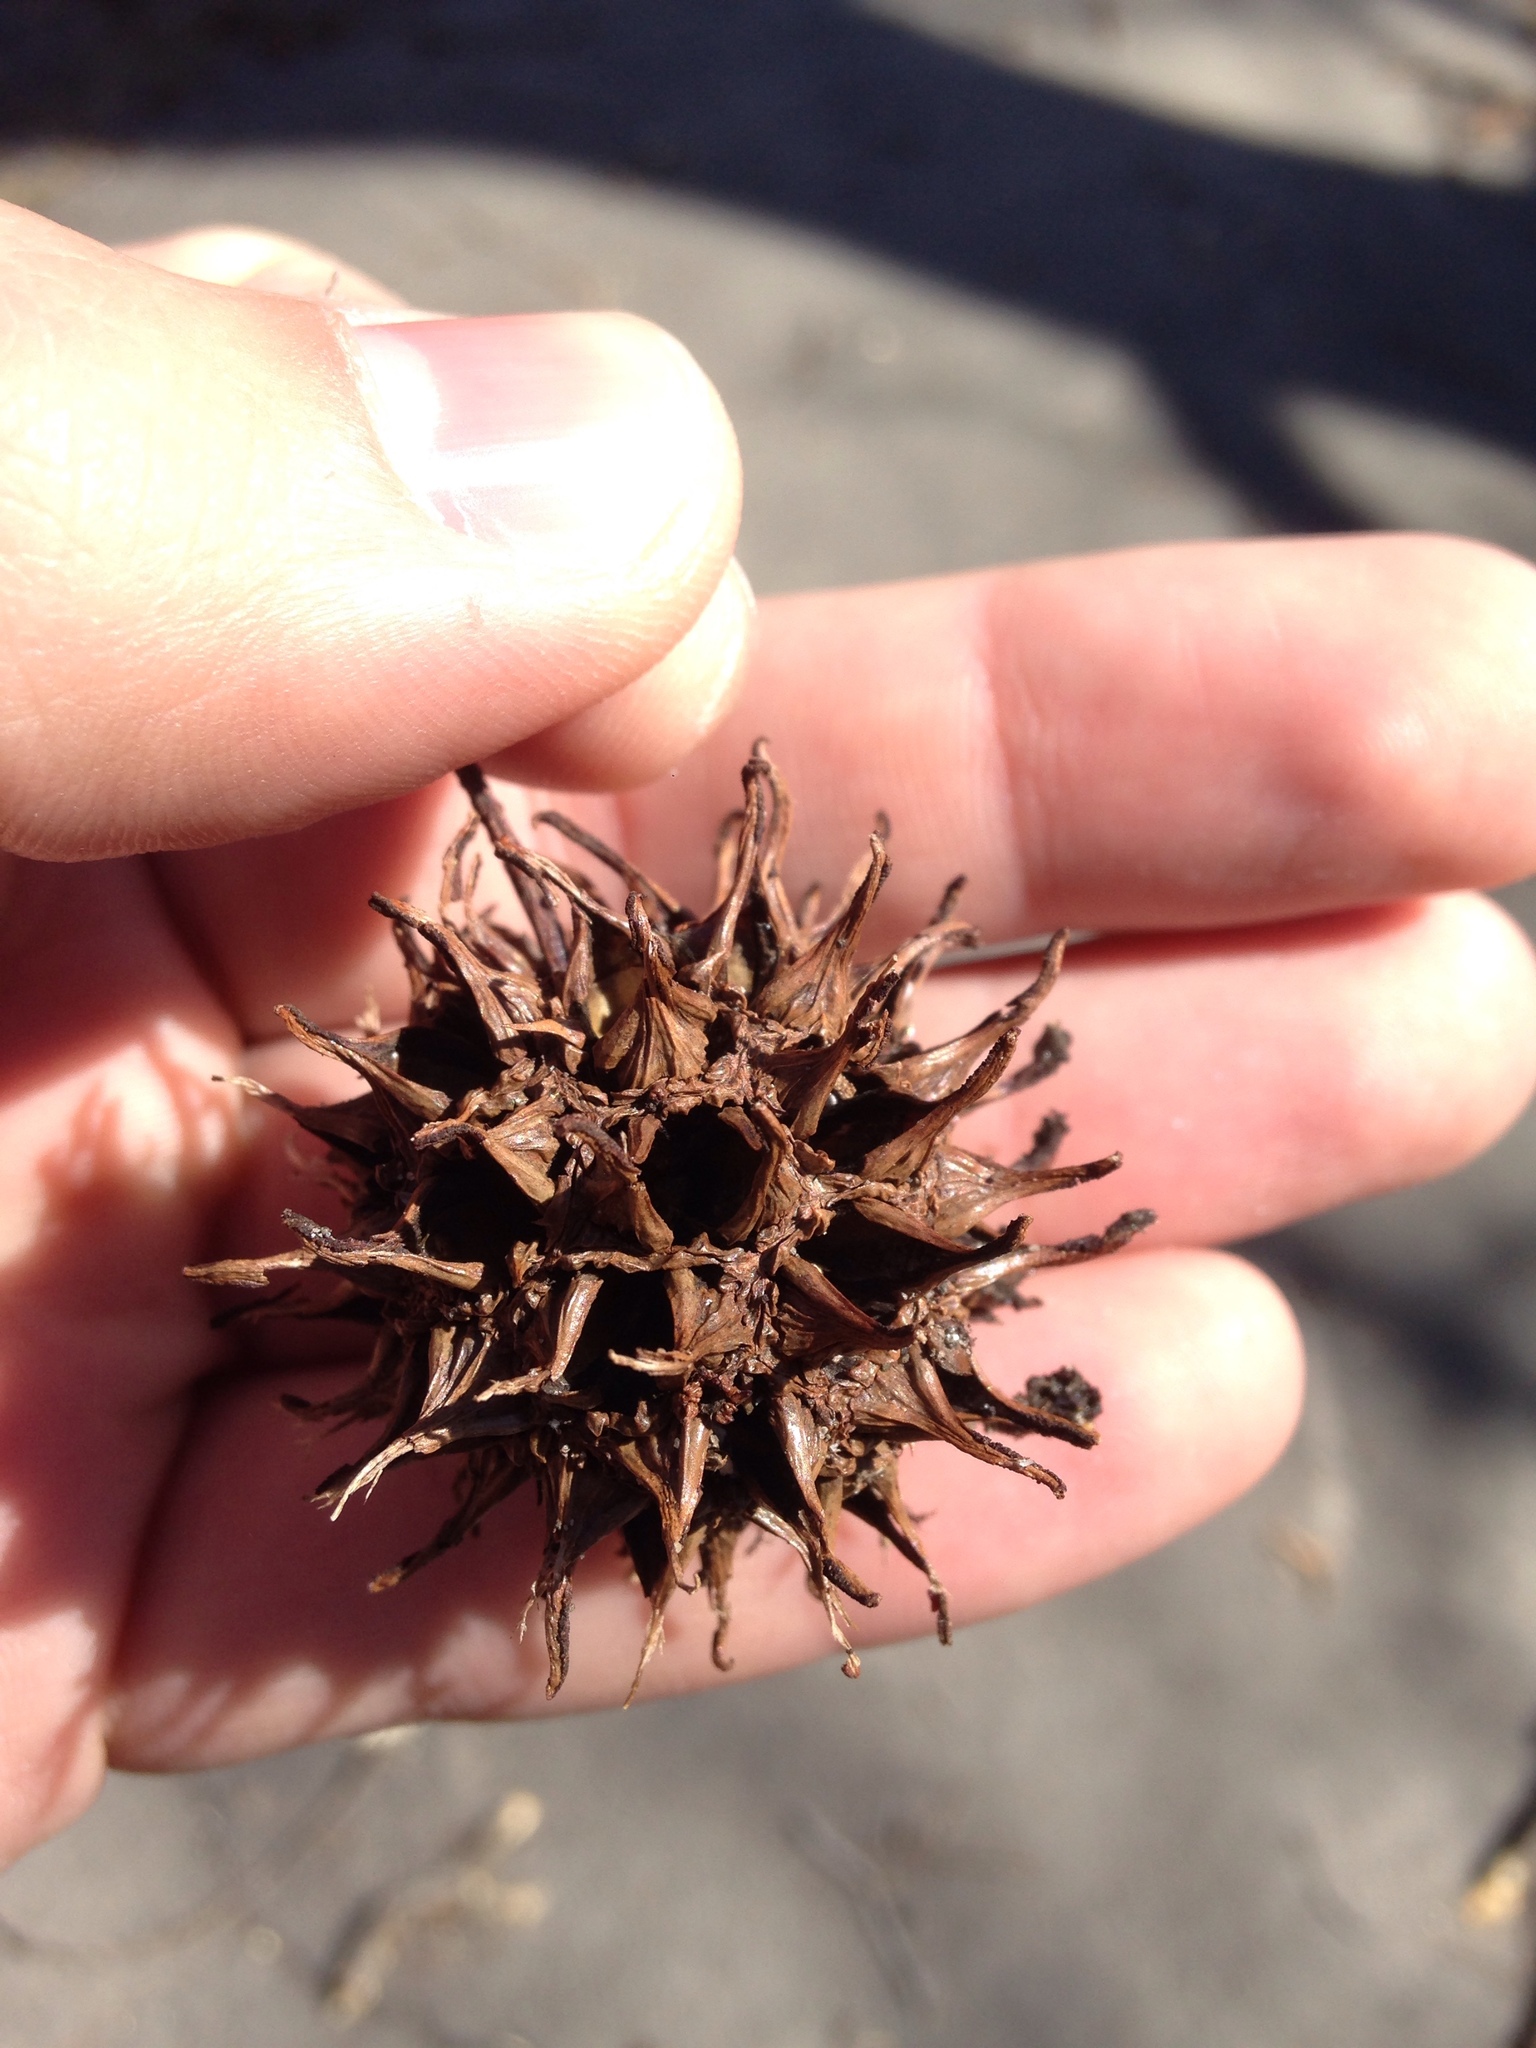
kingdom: Plantae
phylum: Tracheophyta
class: Magnoliopsida
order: Saxifragales
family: Altingiaceae
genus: Liquidambar
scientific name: Liquidambar styraciflua
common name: Sweet gum
